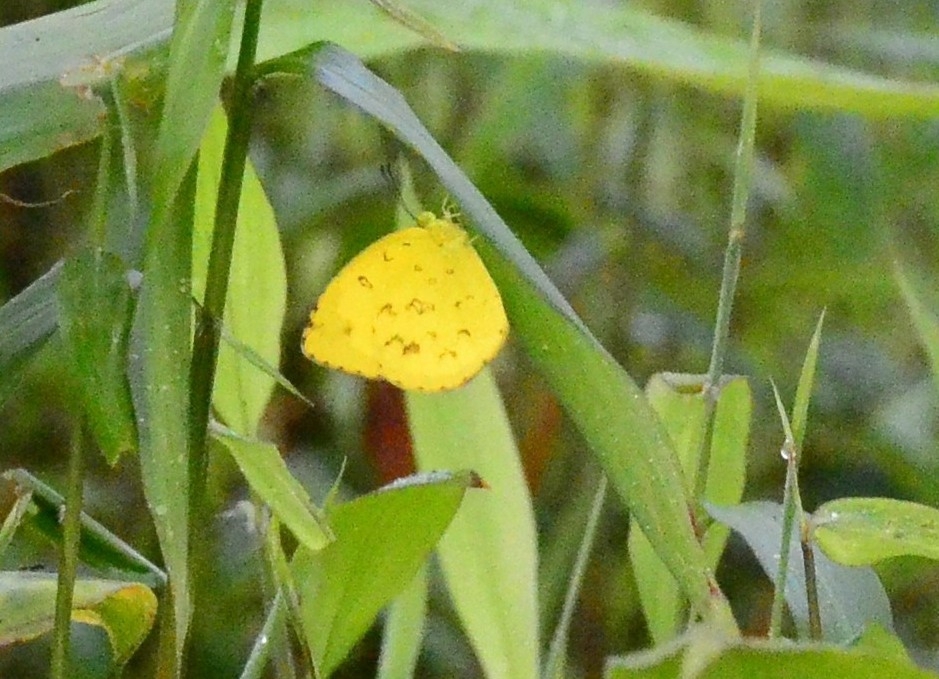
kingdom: Animalia
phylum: Arthropoda
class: Insecta
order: Lepidoptera
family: Pieridae
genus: Eurema
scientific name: Eurema hecabe
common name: Pale grass yellow
